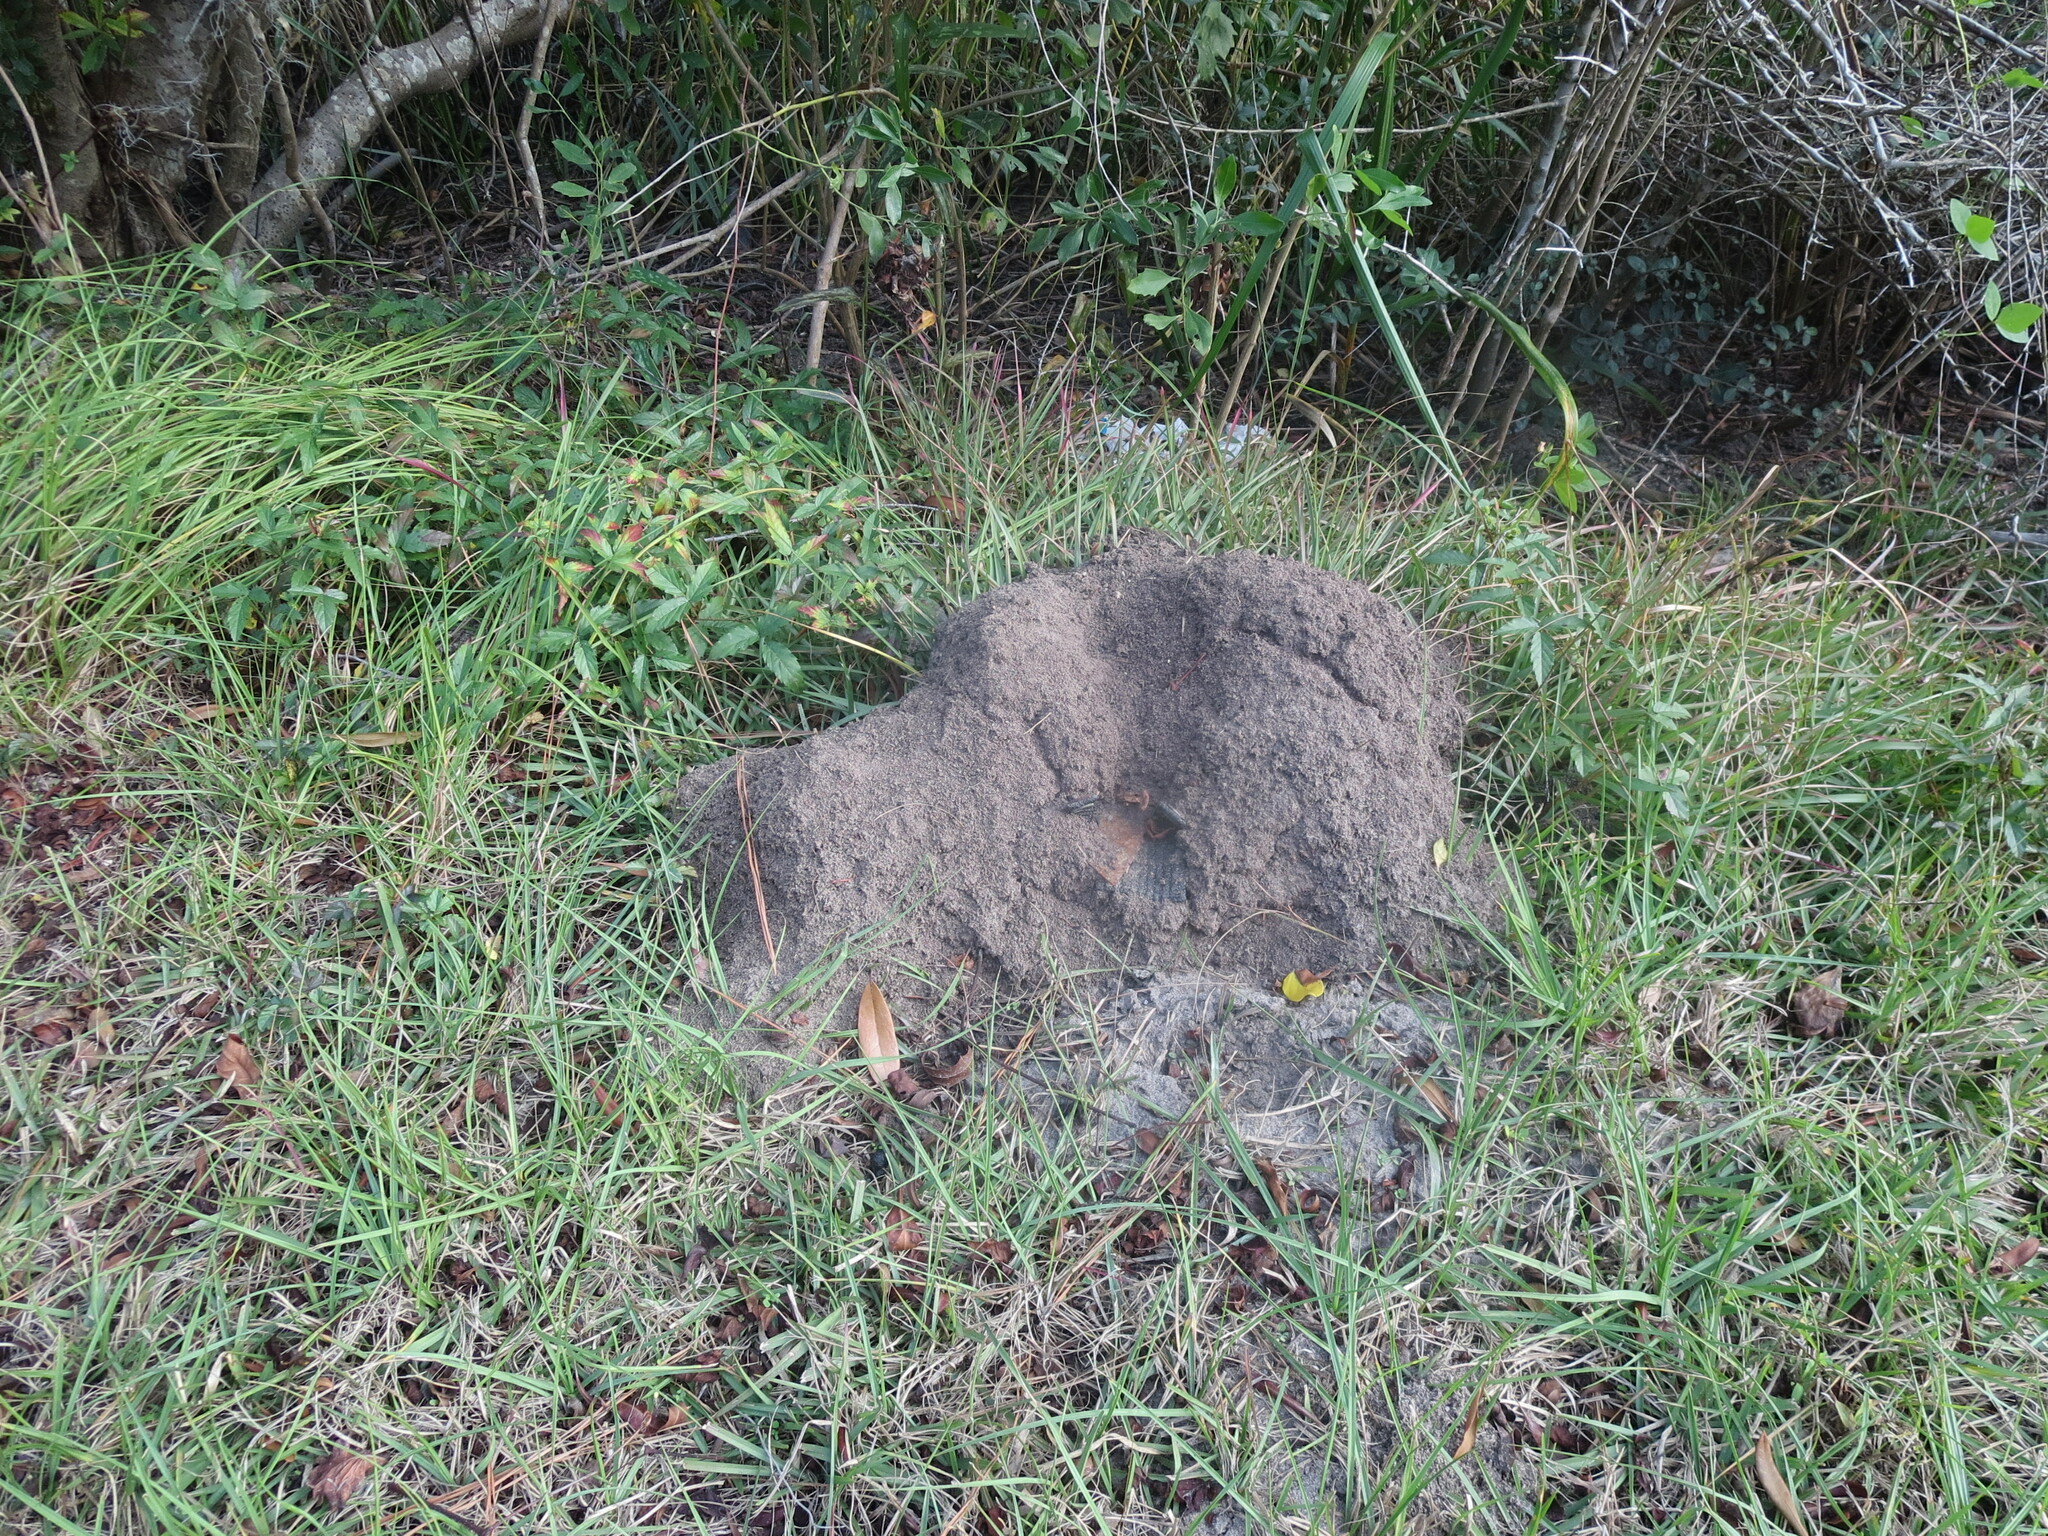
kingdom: Animalia
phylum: Arthropoda
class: Insecta
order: Hymenoptera
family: Formicidae
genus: Solenopsis
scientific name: Solenopsis invicta
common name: Red imported fire ant
